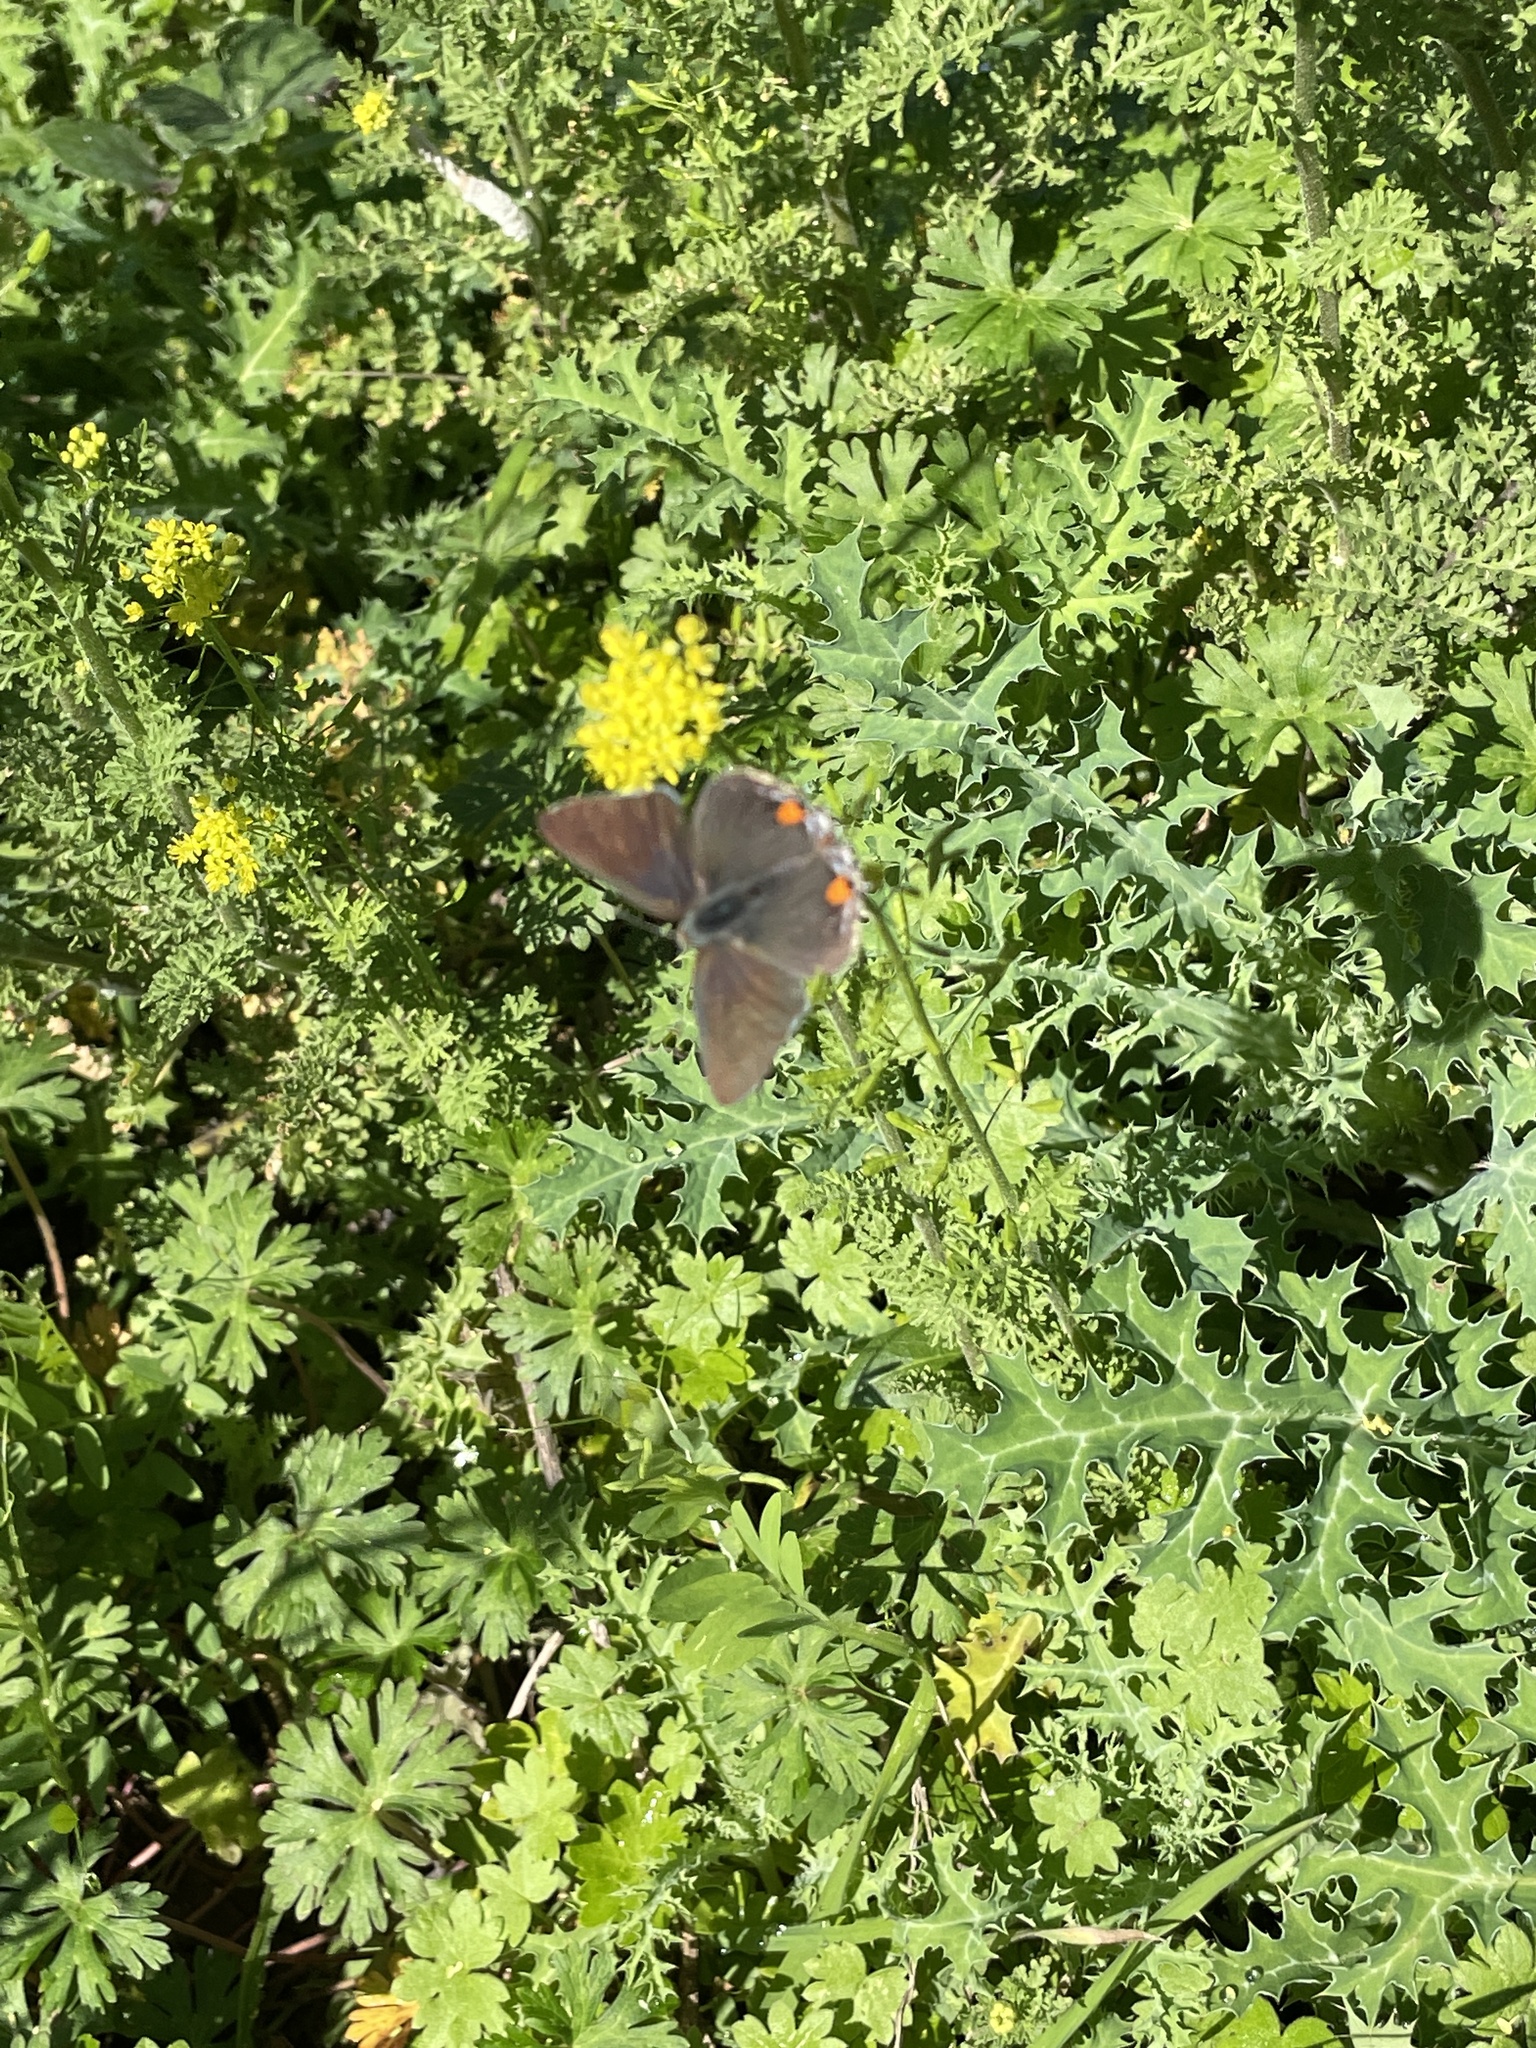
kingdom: Animalia
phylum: Arthropoda
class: Insecta
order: Lepidoptera
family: Lycaenidae
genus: Strymon
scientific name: Strymon melinus
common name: Gray hairstreak
